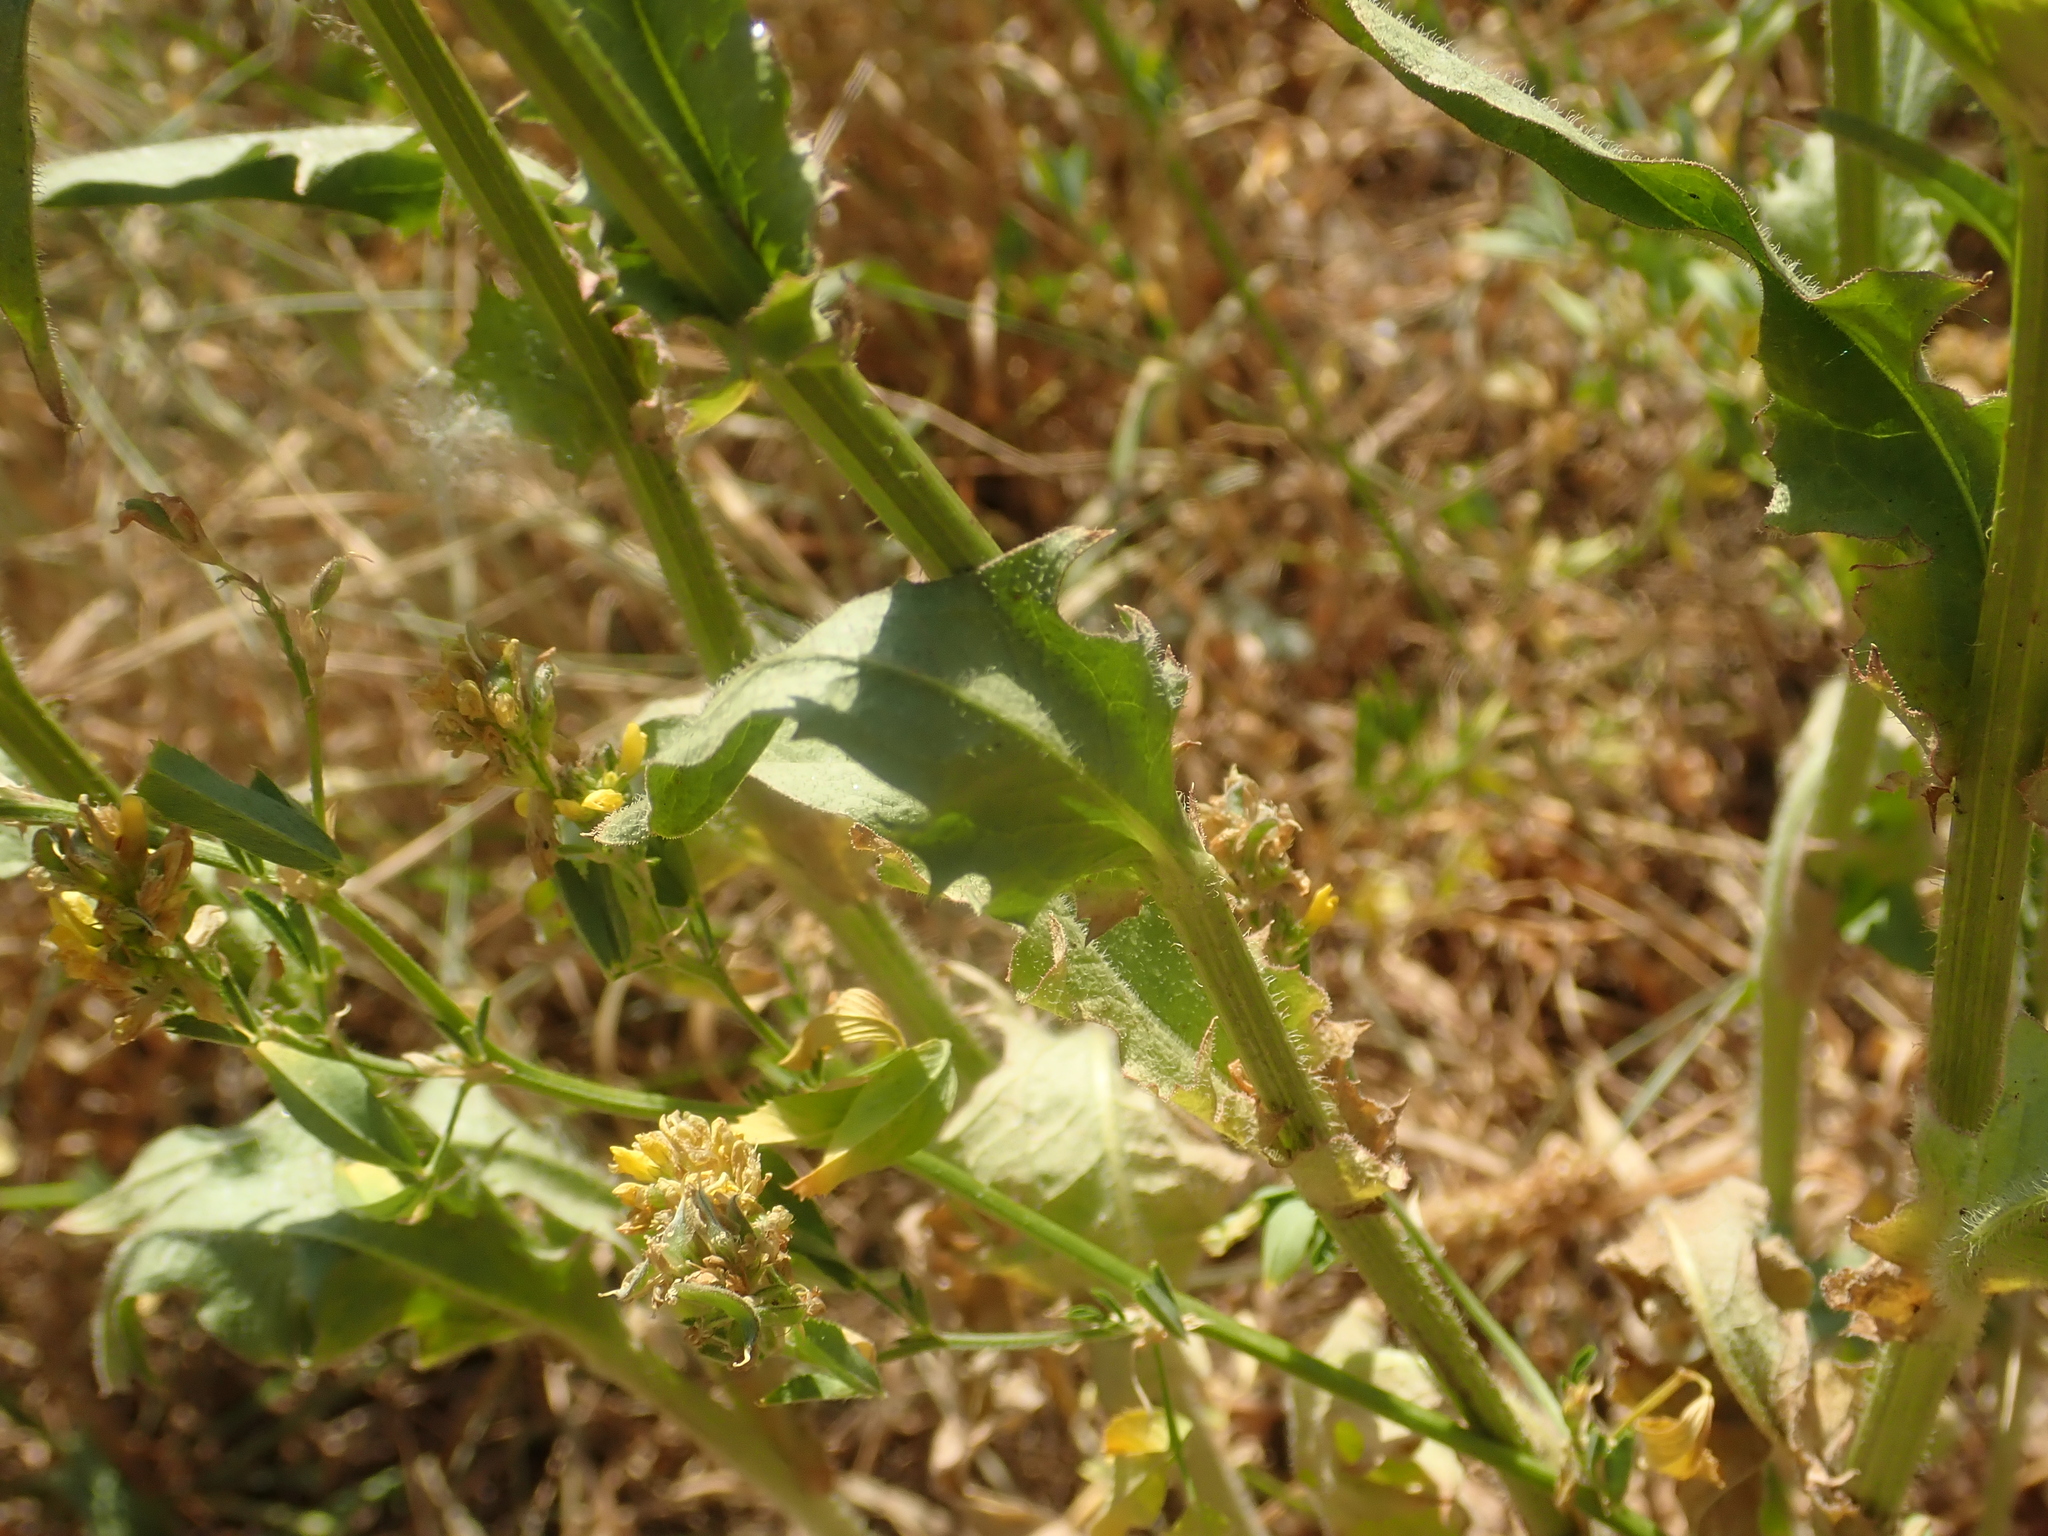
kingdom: Plantae
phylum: Tracheophyta
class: Magnoliopsida
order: Asterales
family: Asteraceae
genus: Cichorium
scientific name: Cichorium intybus
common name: Chicory
